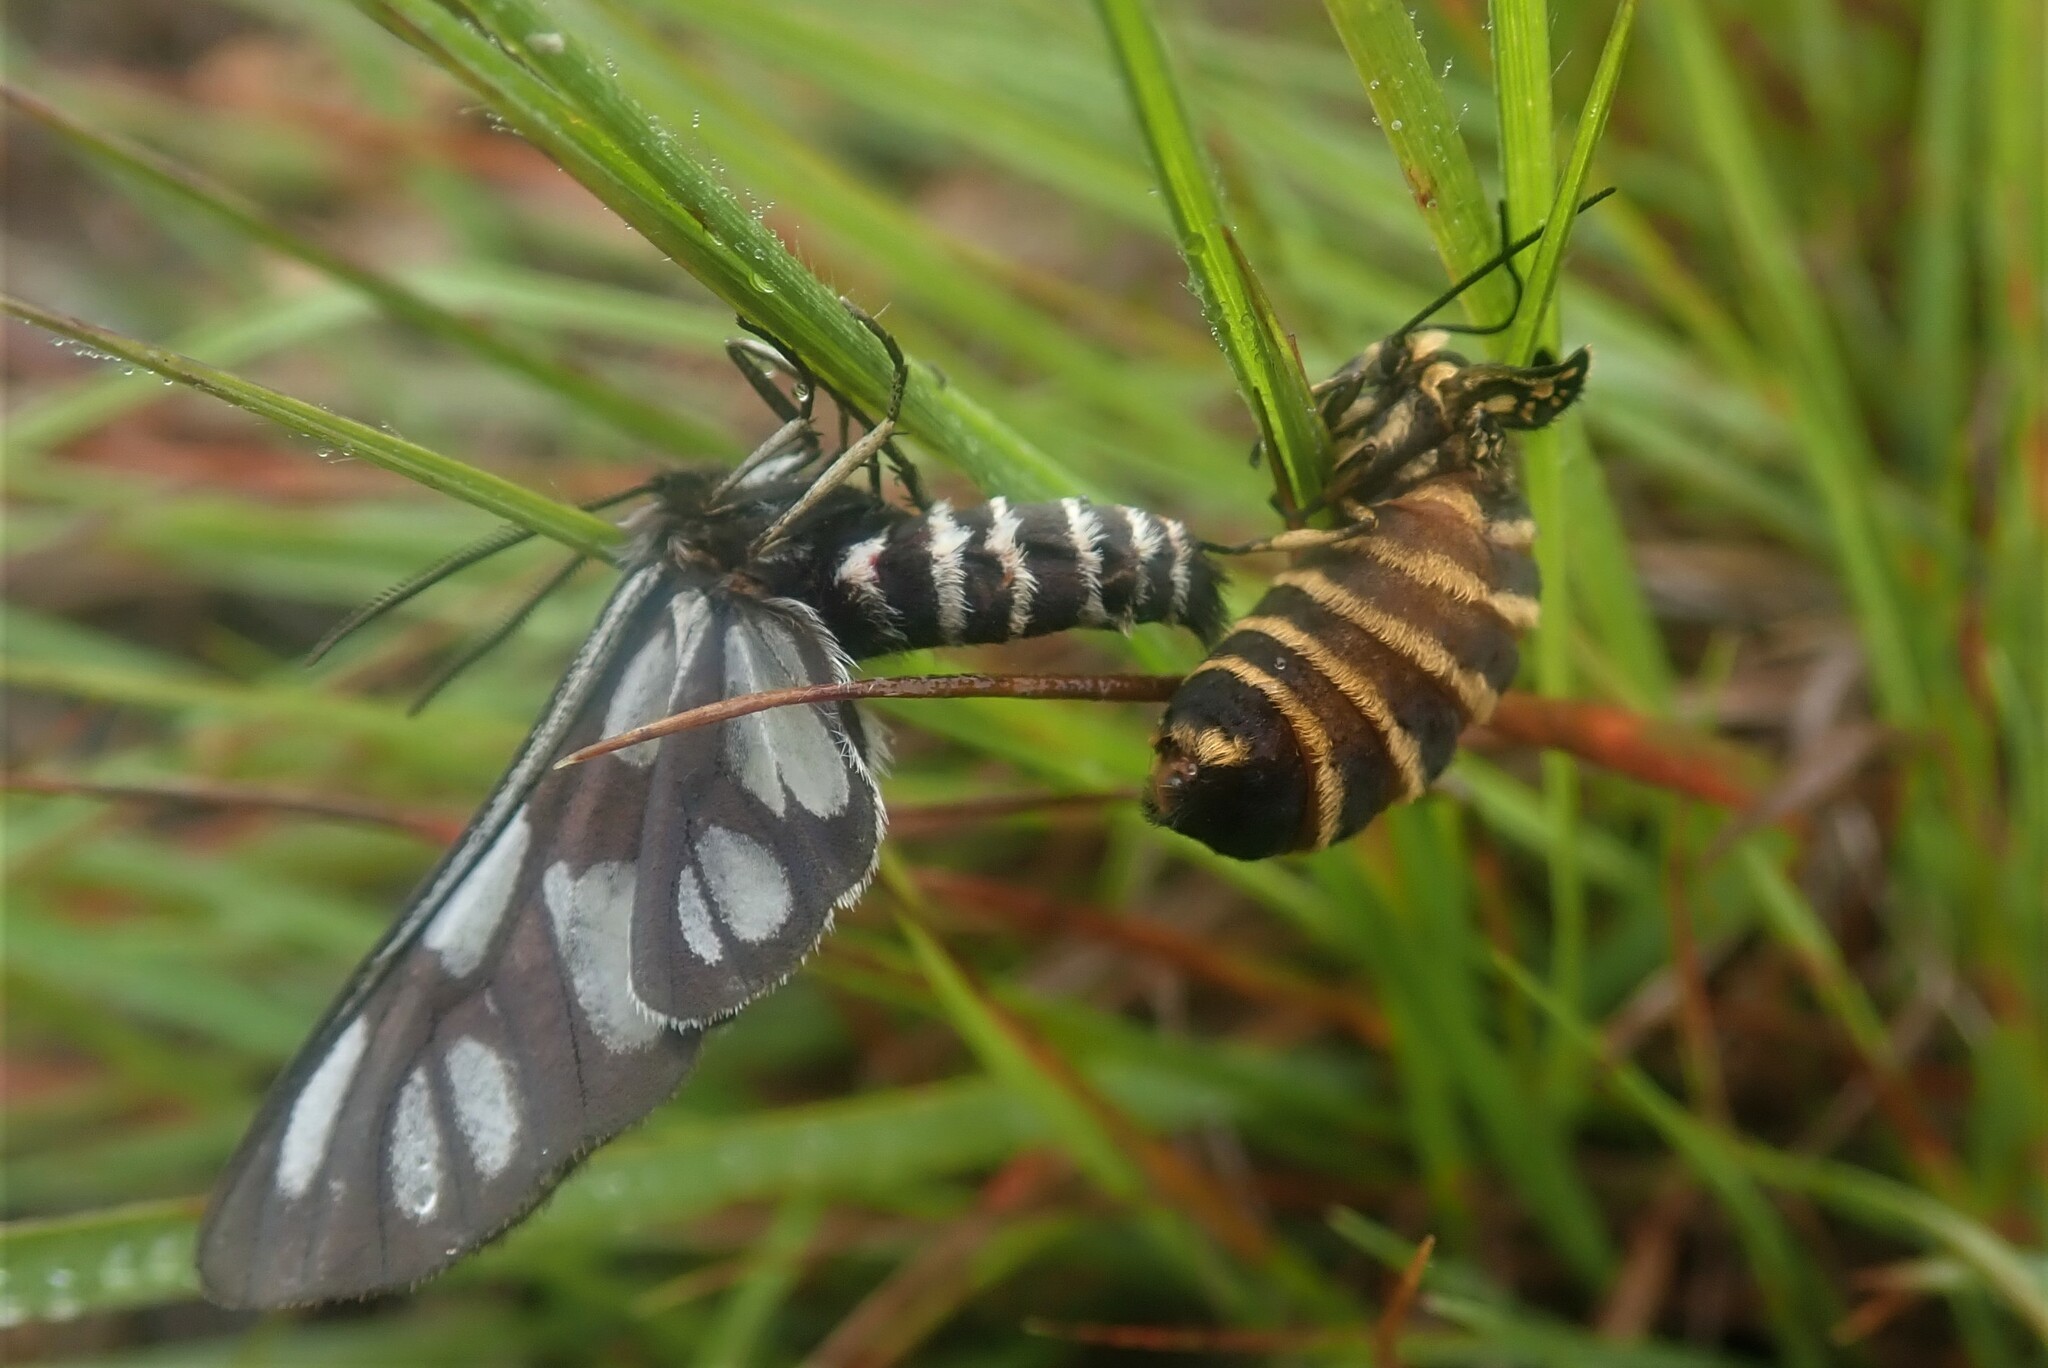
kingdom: Animalia
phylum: Arthropoda
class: Insecta
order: Lepidoptera
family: Erebidae
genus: Epitoxis
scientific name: Epitoxis amazoula
